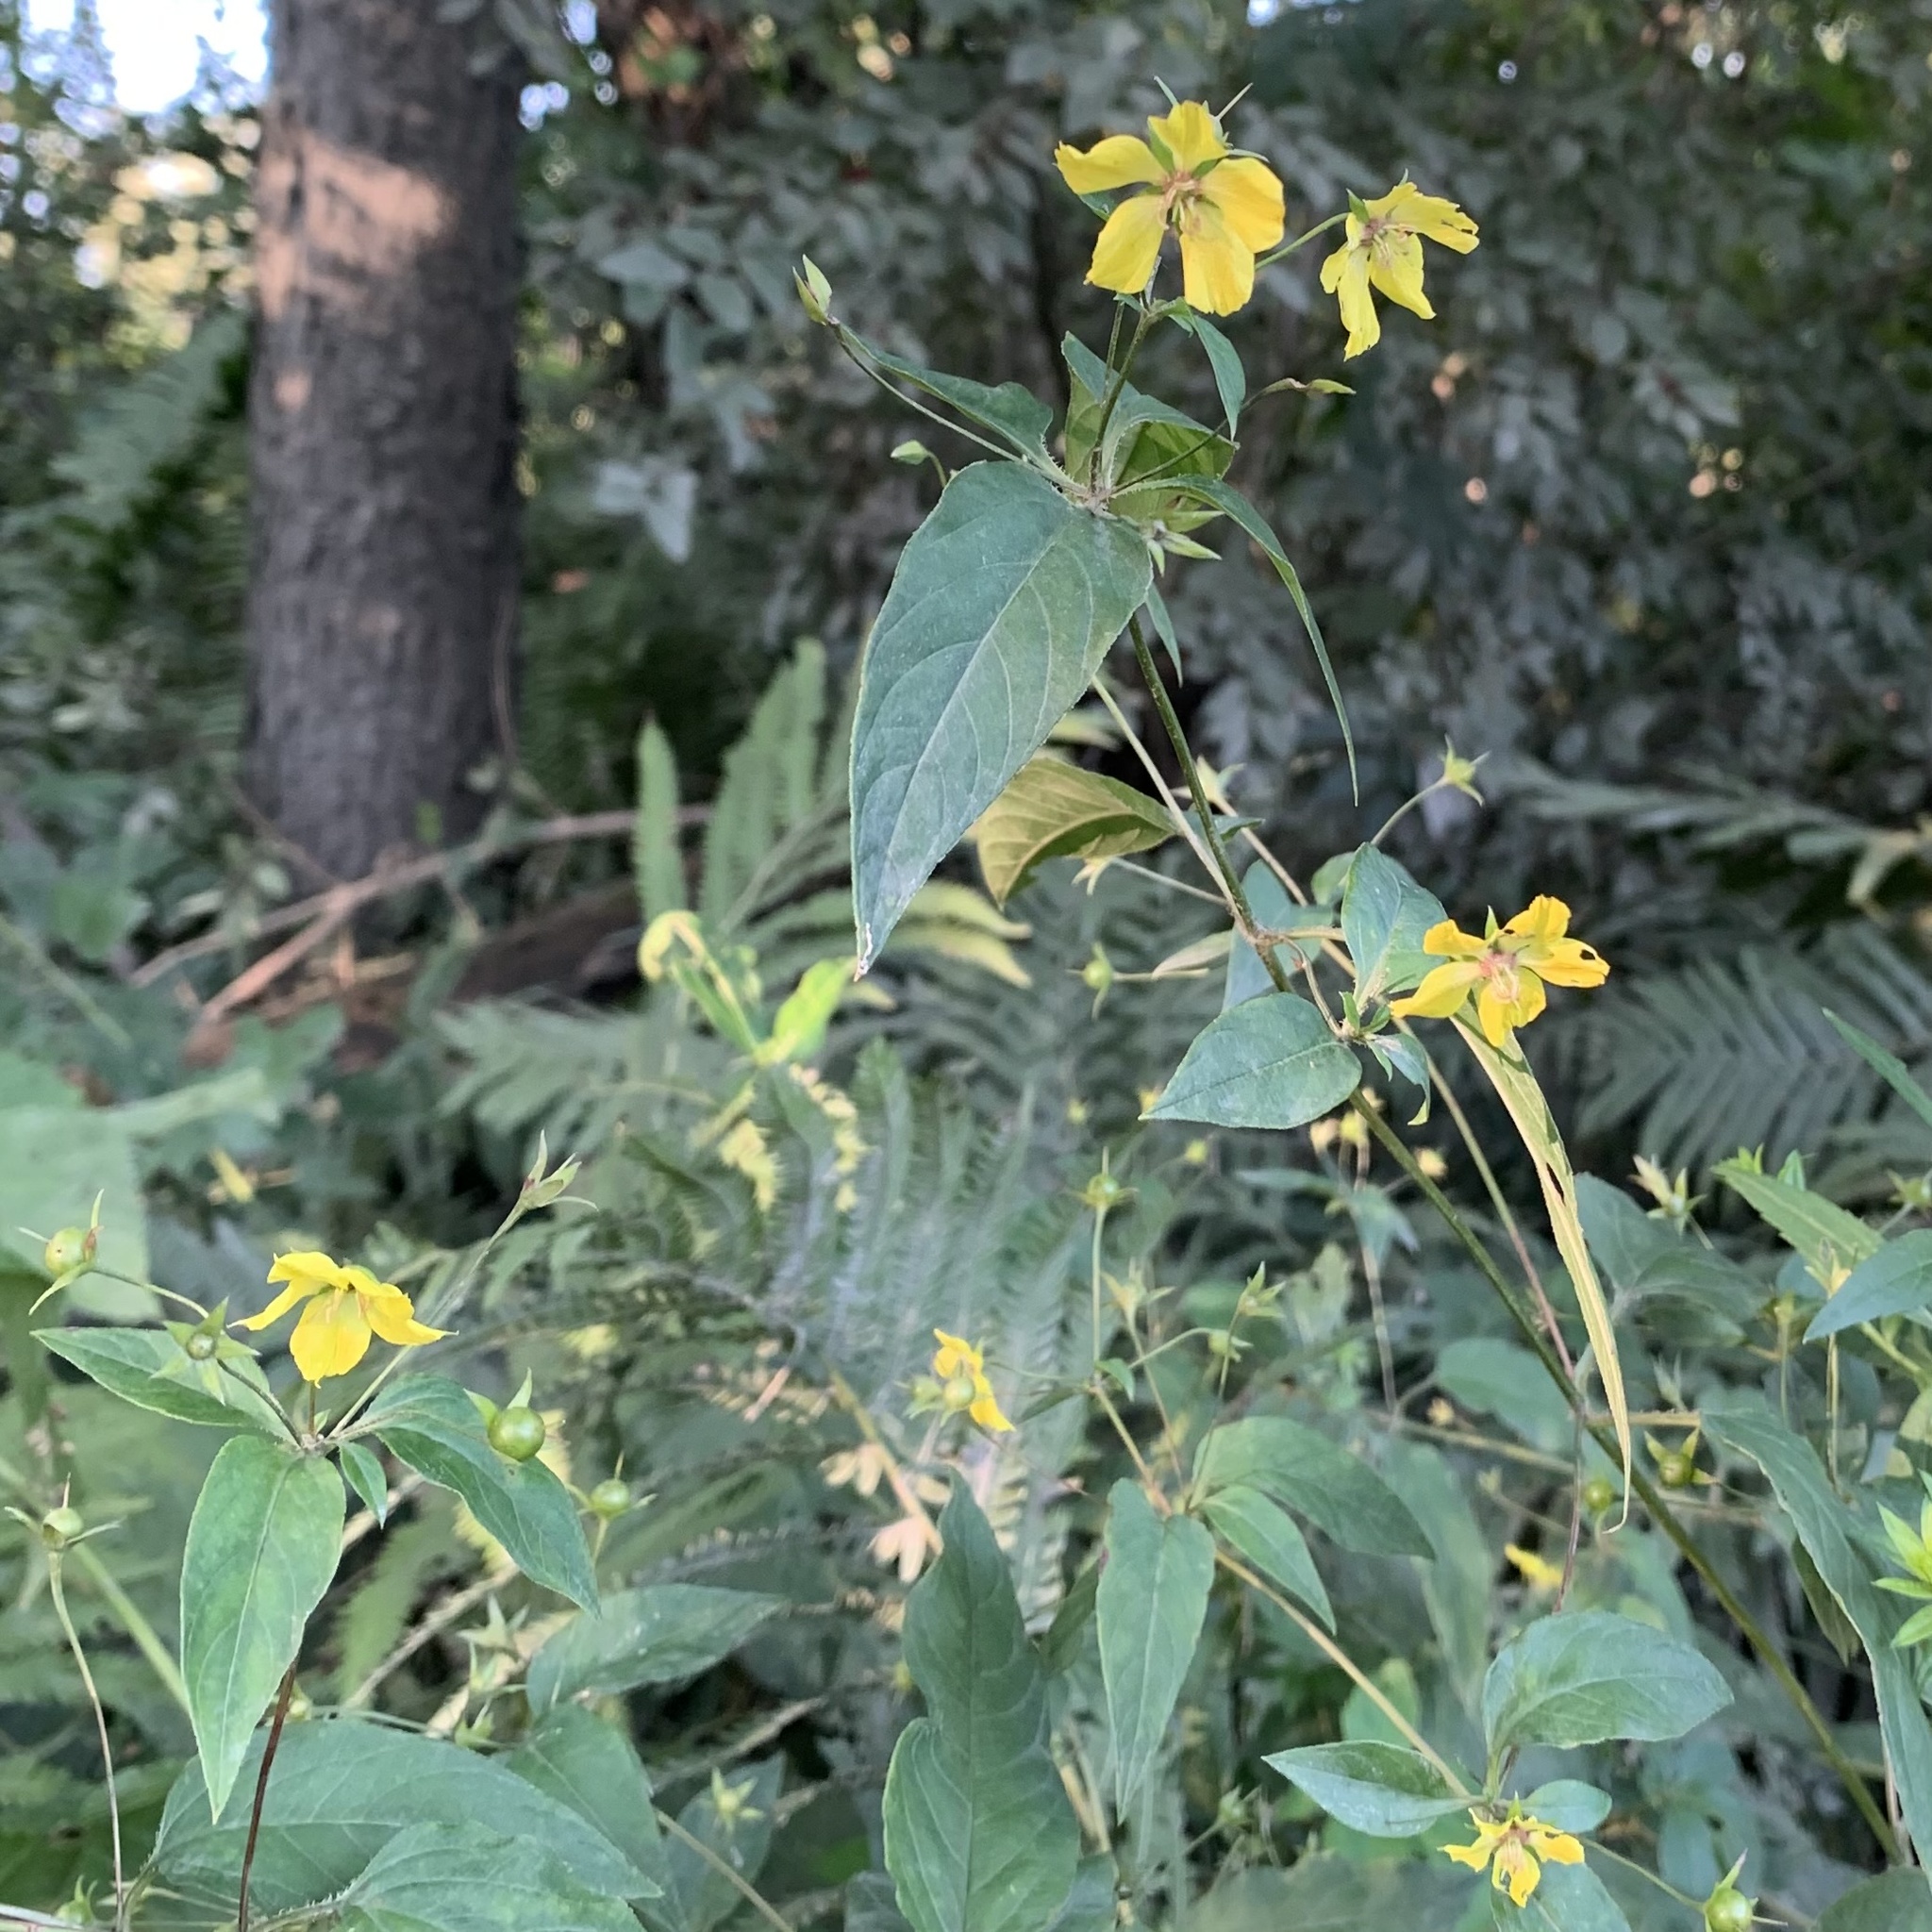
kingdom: Plantae
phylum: Tracheophyta
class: Magnoliopsida
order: Ericales
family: Primulaceae
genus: Lysimachia
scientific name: Lysimachia ciliata
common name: Fringed loosestrife
